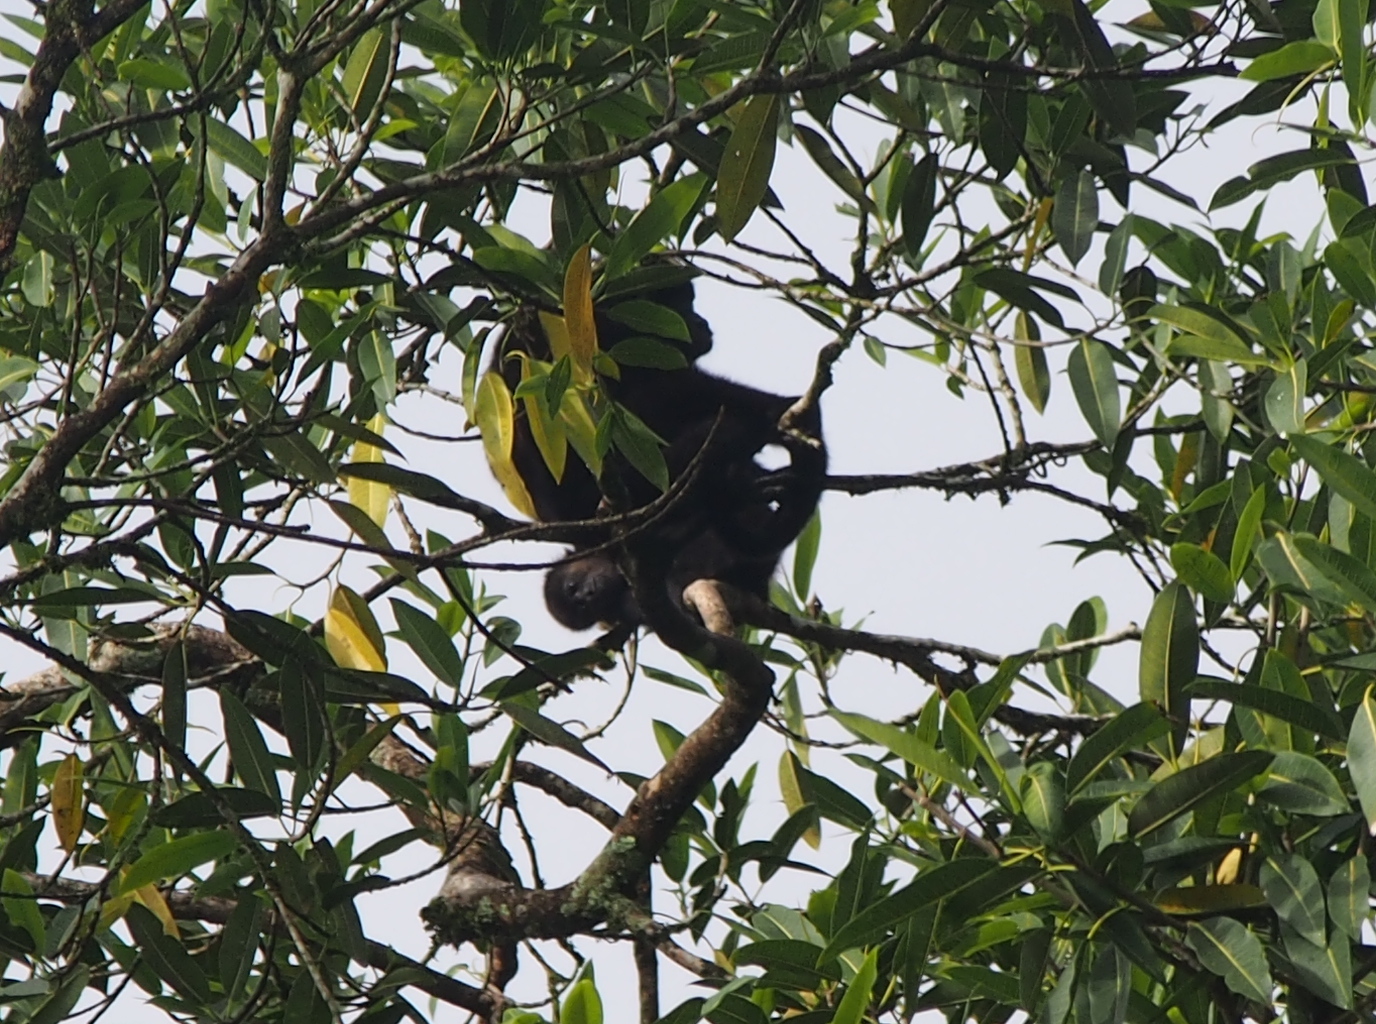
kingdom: Animalia
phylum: Chordata
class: Mammalia
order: Primates
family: Atelidae
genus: Alouatta
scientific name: Alouatta palliata
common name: Mantled howler
